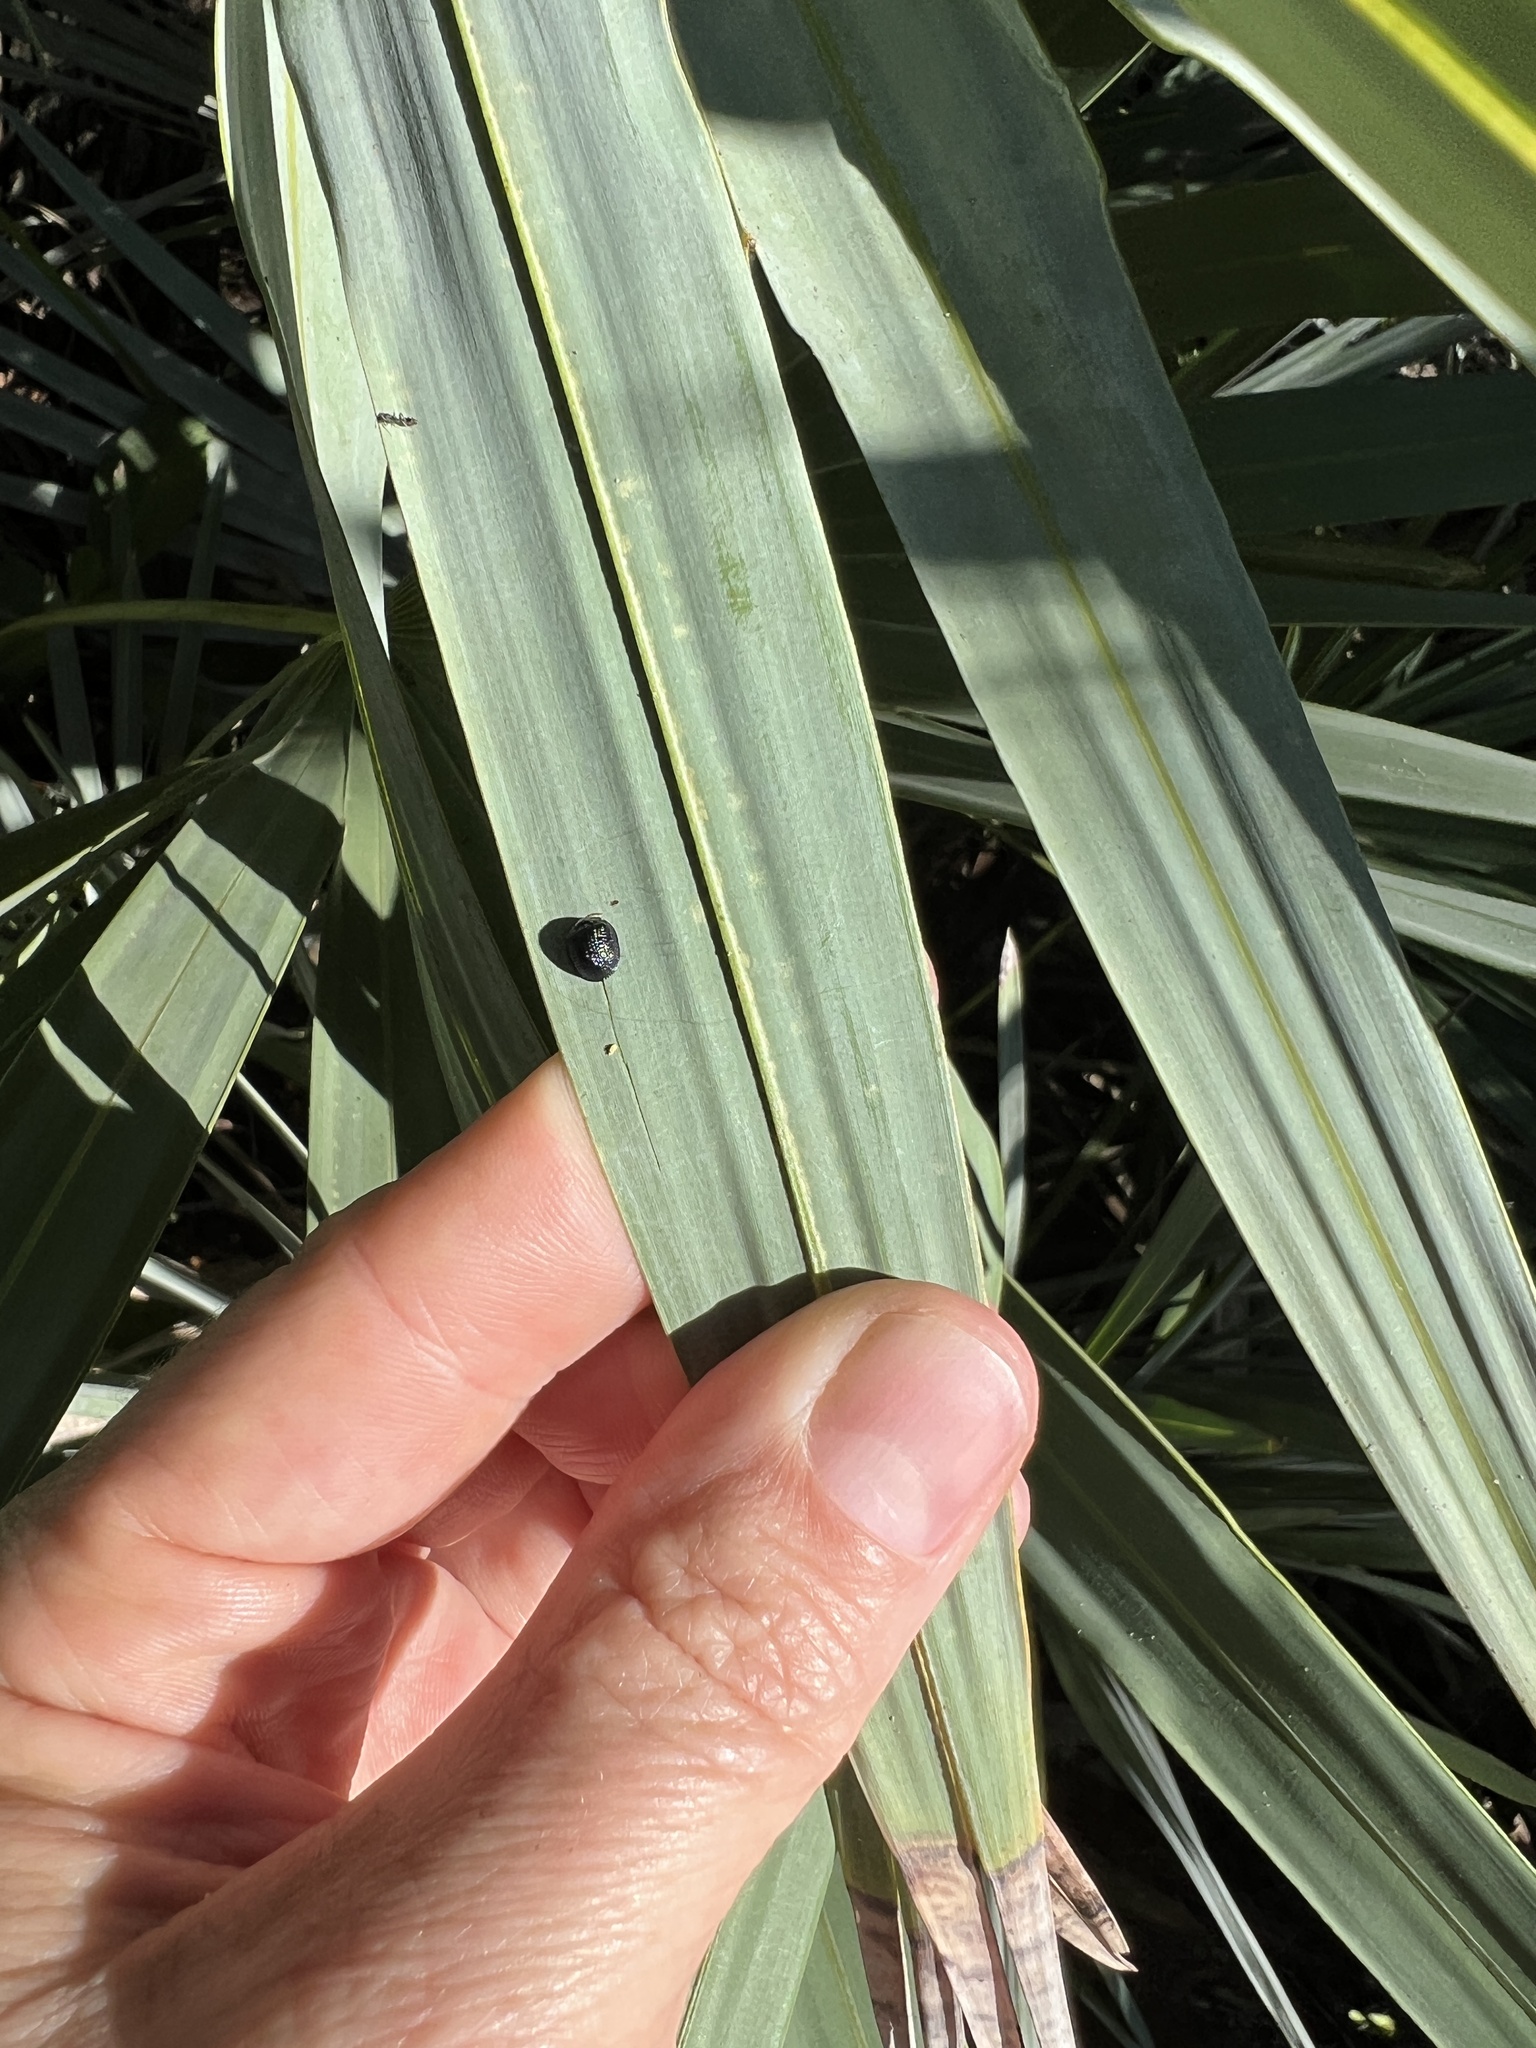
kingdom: Animalia
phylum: Arthropoda
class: Insecta
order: Coleoptera
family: Chrysomelidae
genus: Hemisphaerota
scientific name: Hemisphaerota cyanea
